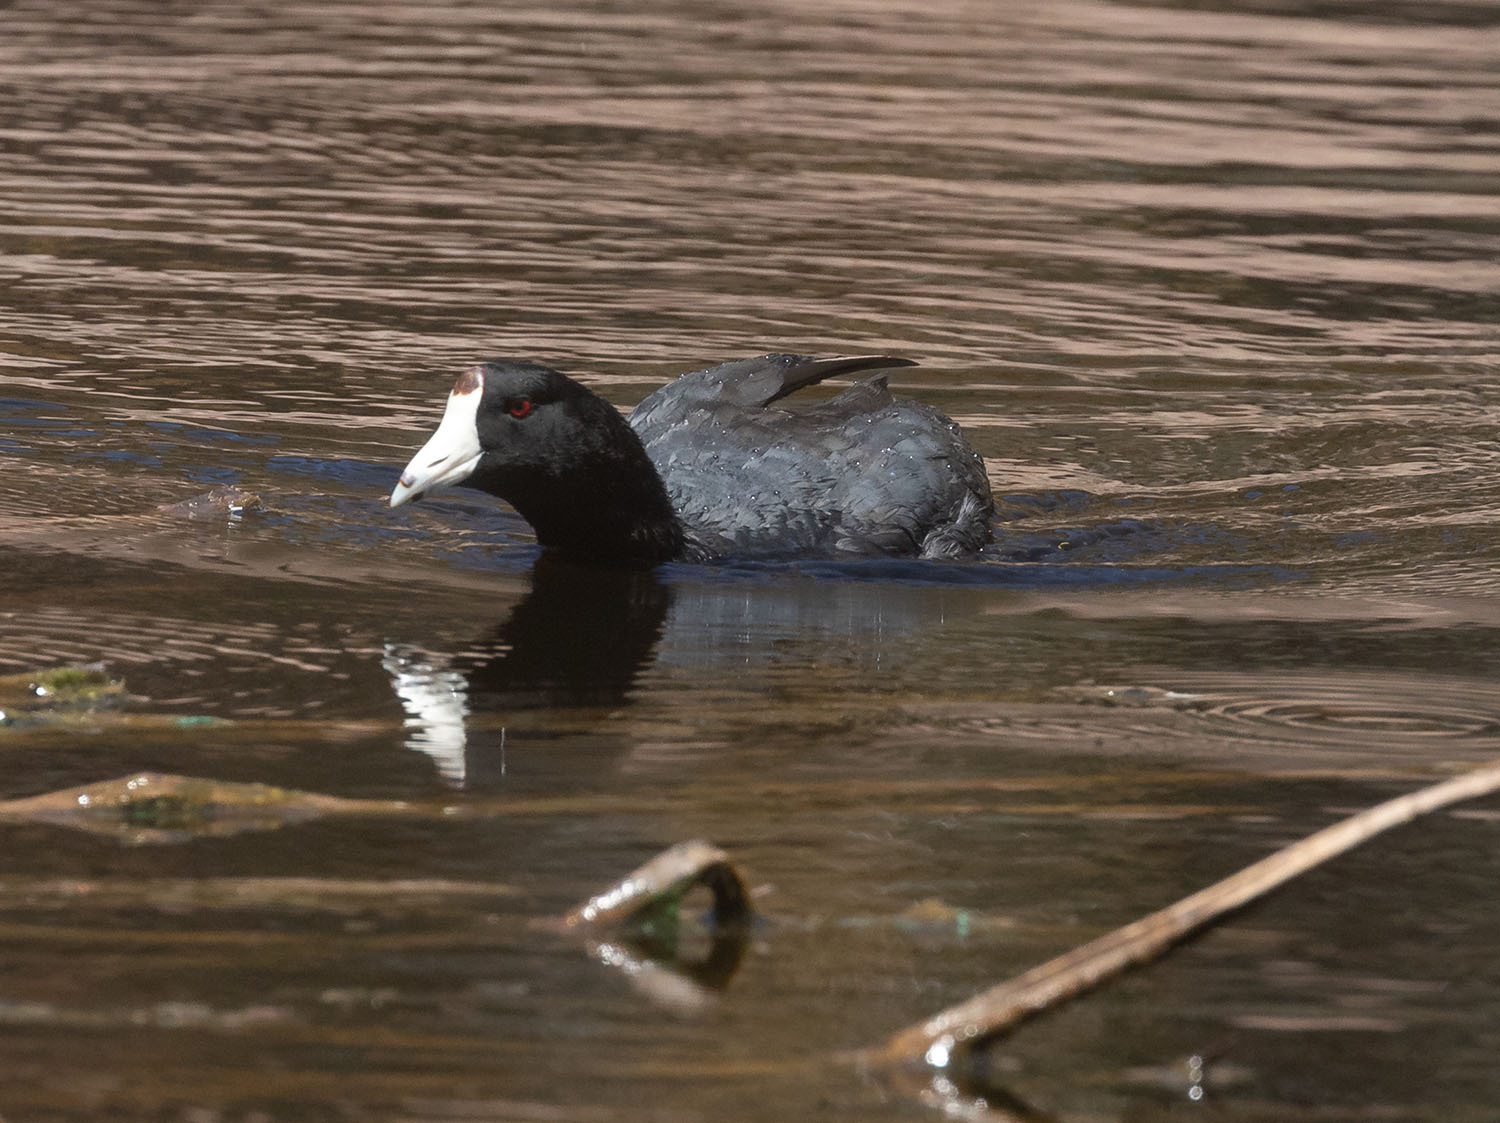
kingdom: Animalia
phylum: Chordata
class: Aves
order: Gruiformes
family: Rallidae
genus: Fulica
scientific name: Fulica americana
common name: American coot
